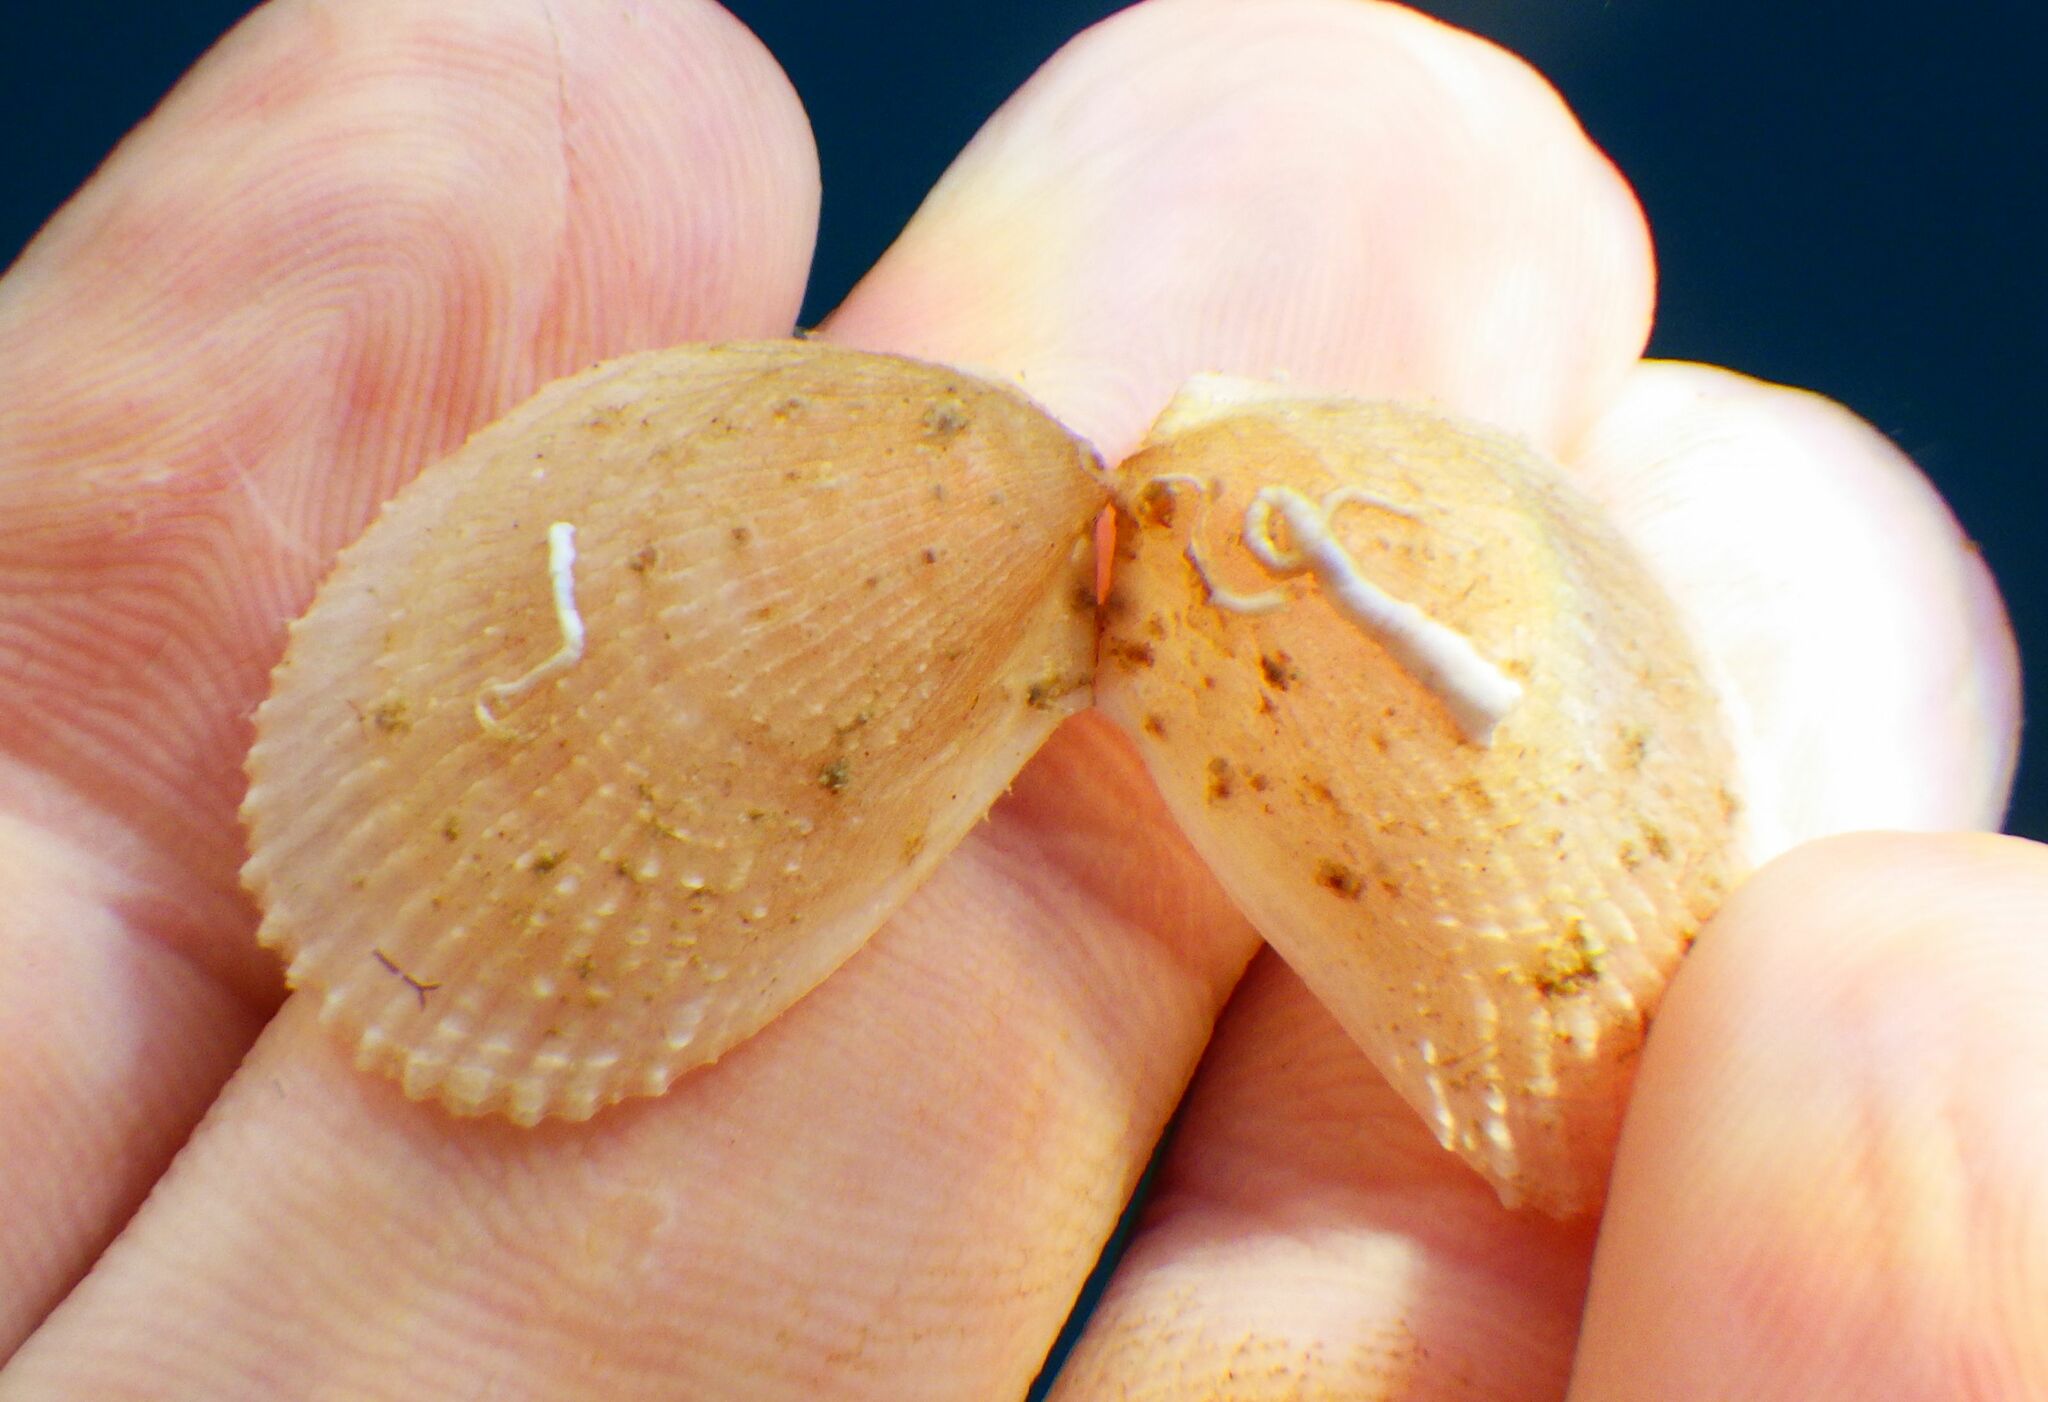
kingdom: Animalia
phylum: Mollusca
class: Bivalvia
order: Limida
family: Limidae
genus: Limaria
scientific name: Limaria tuberculata
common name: File shell
